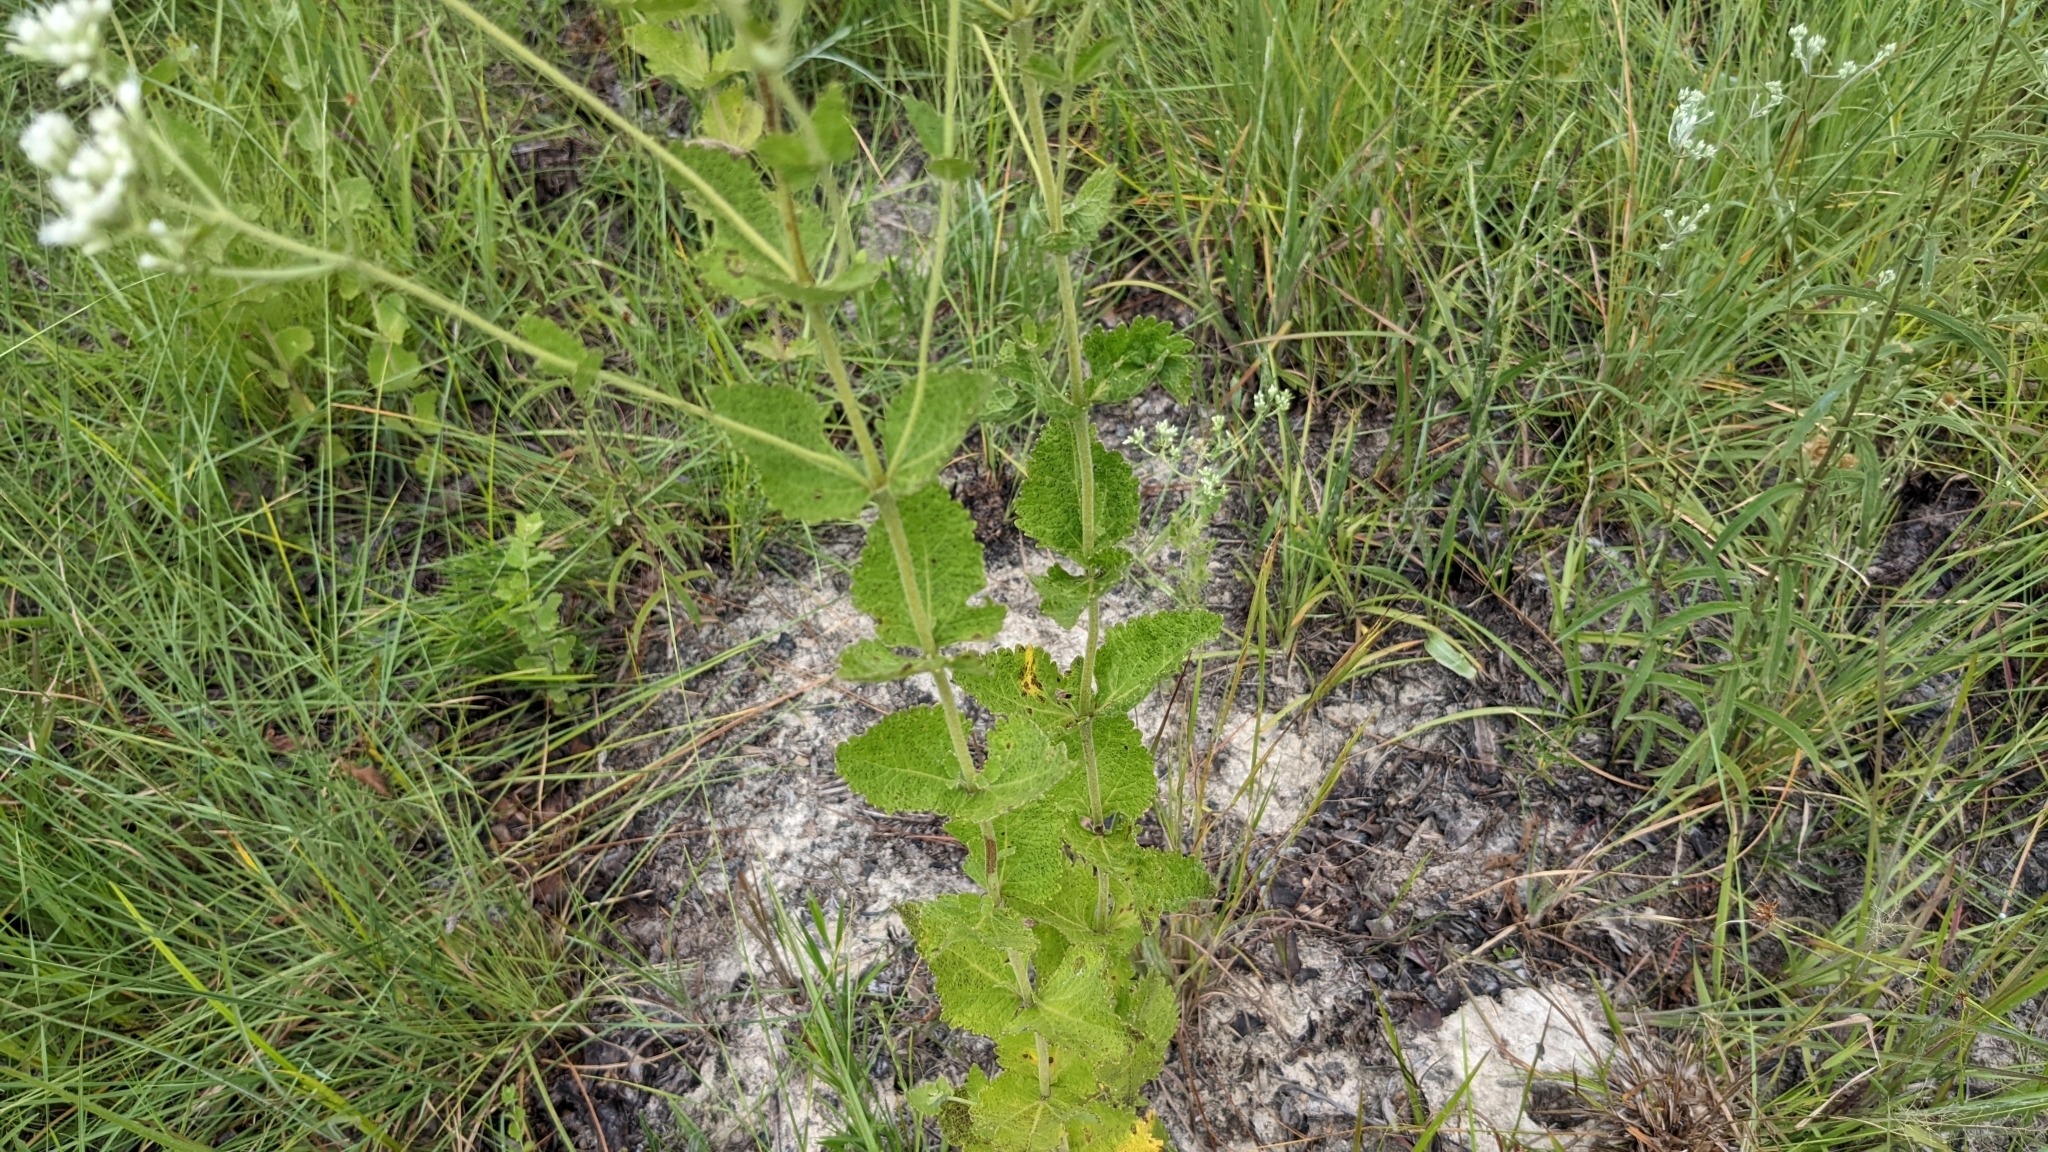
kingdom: Plantae
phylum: Tracheophyta
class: Magnoliopsida
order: Asterales
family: Asteraceae
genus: Eupatorium
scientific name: Eupatorium rotundifolium
